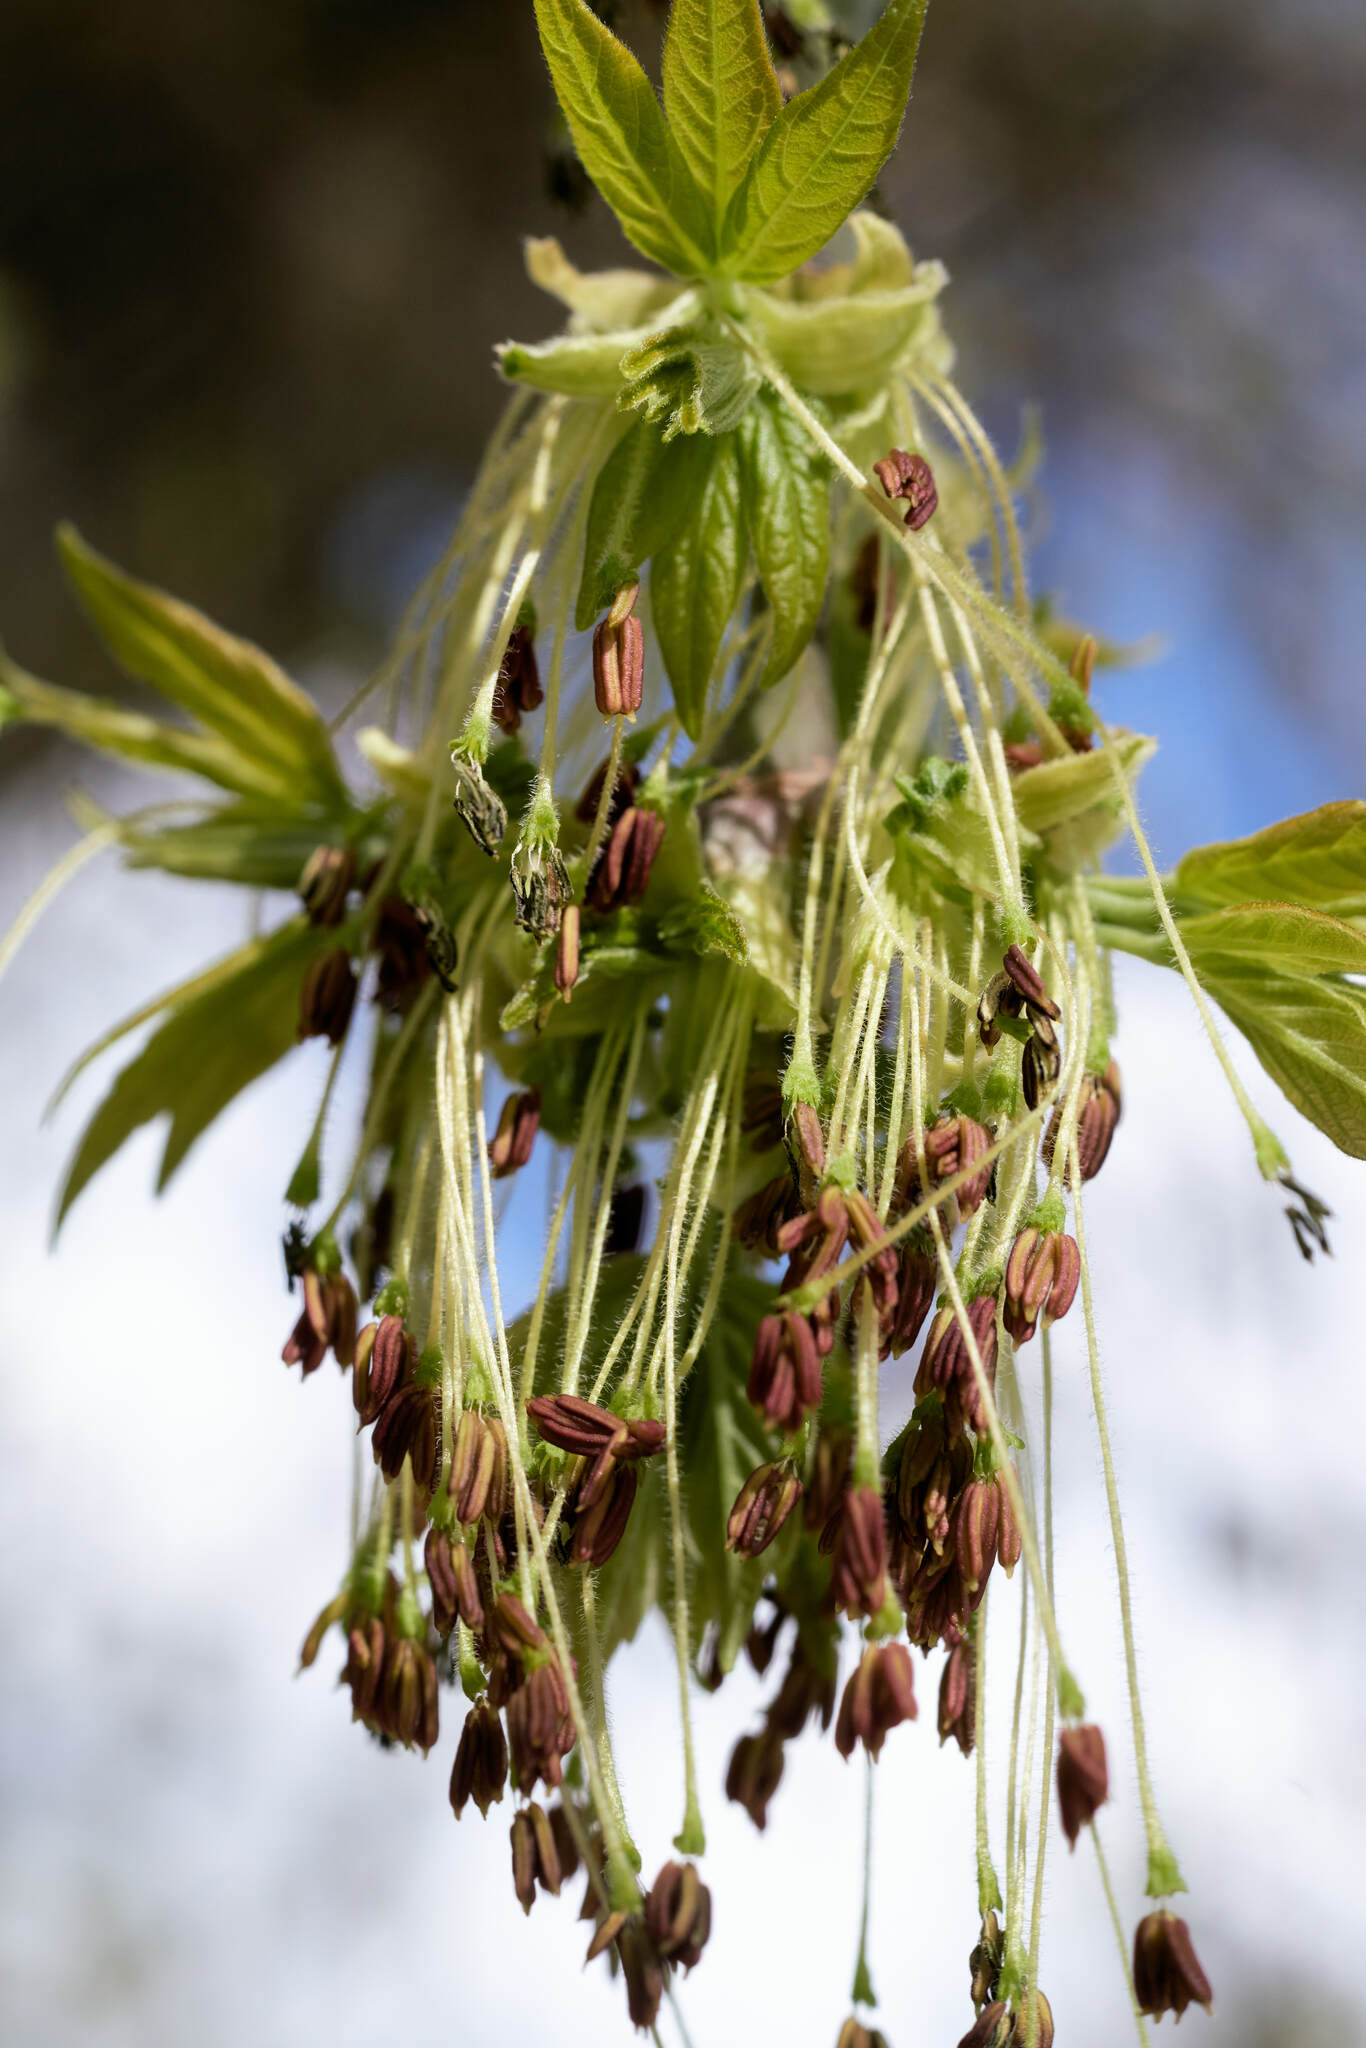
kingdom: Plantae
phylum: Tracheophyta
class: Magnoliopsida
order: Sapindales
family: Sapindaceae
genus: Acer
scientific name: Acer negundo
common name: Ashleaf maple
